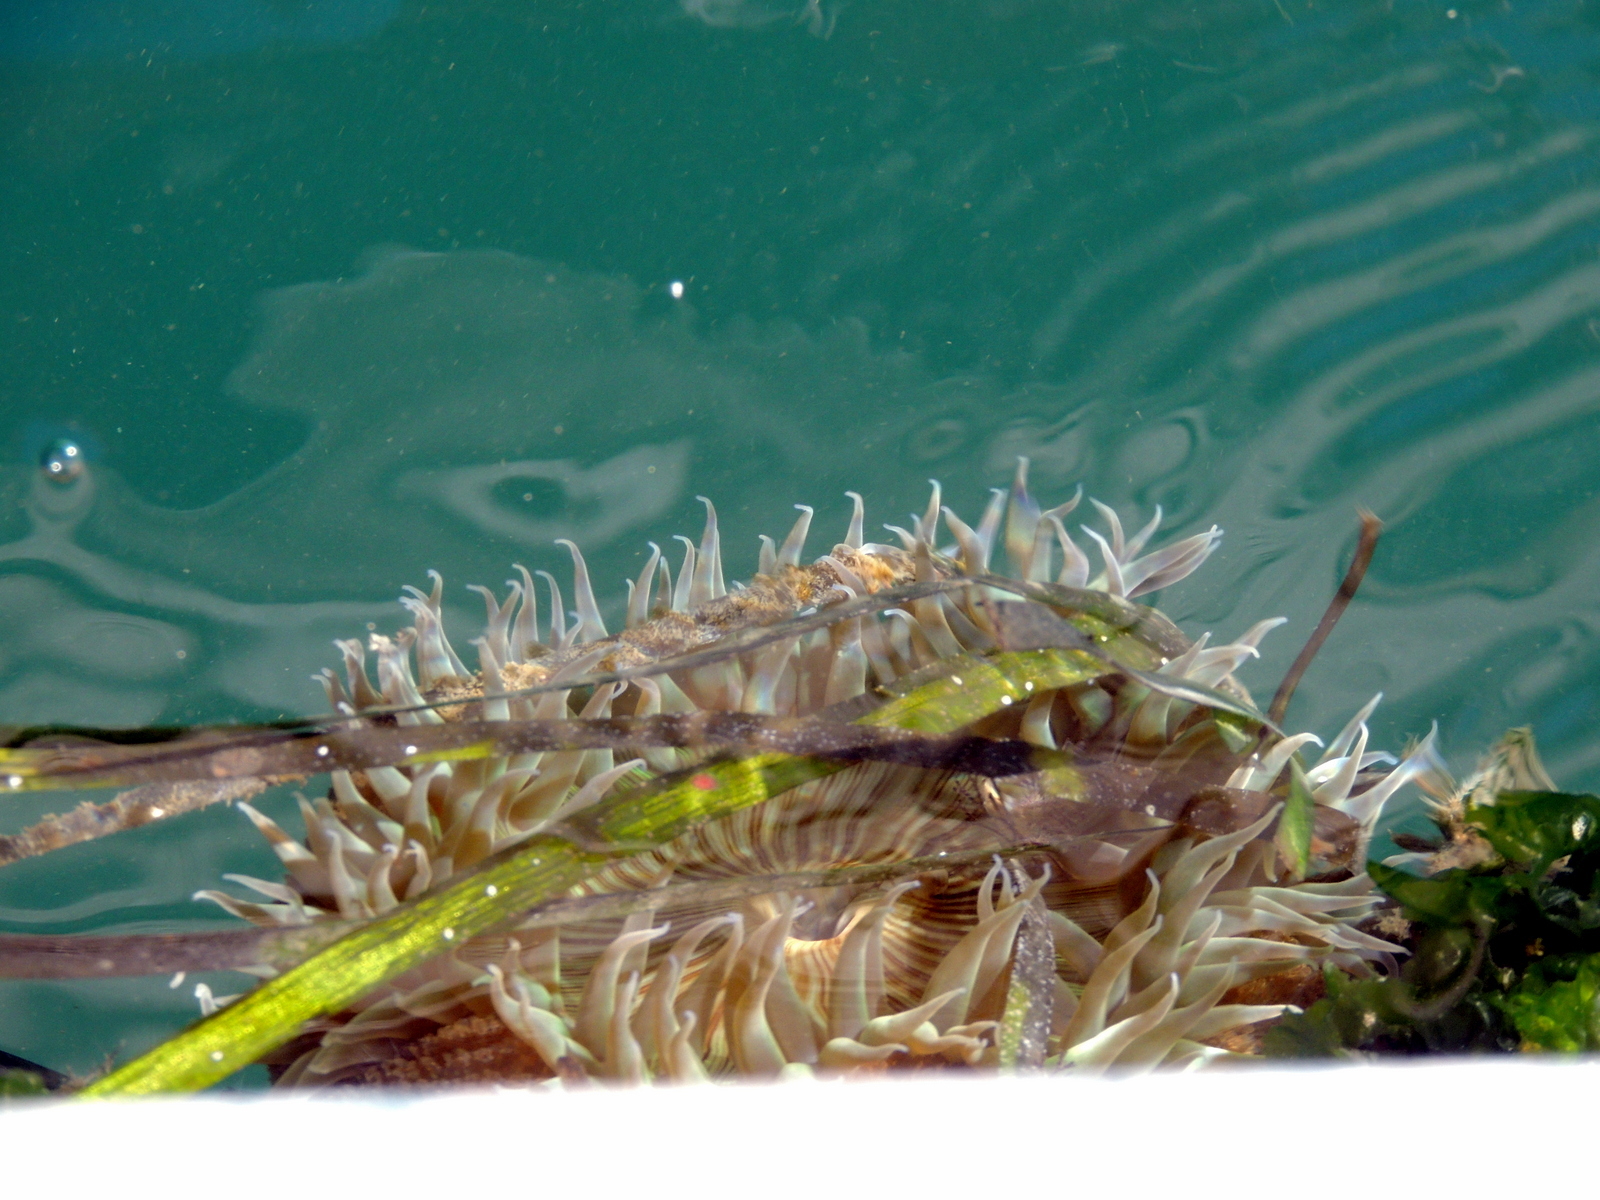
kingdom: Animalia
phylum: Cnidaria
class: Anthozoa
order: Actiniaria
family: Actiniidae
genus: Anthopleura
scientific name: Anthopleura sola
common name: Sun anemone
